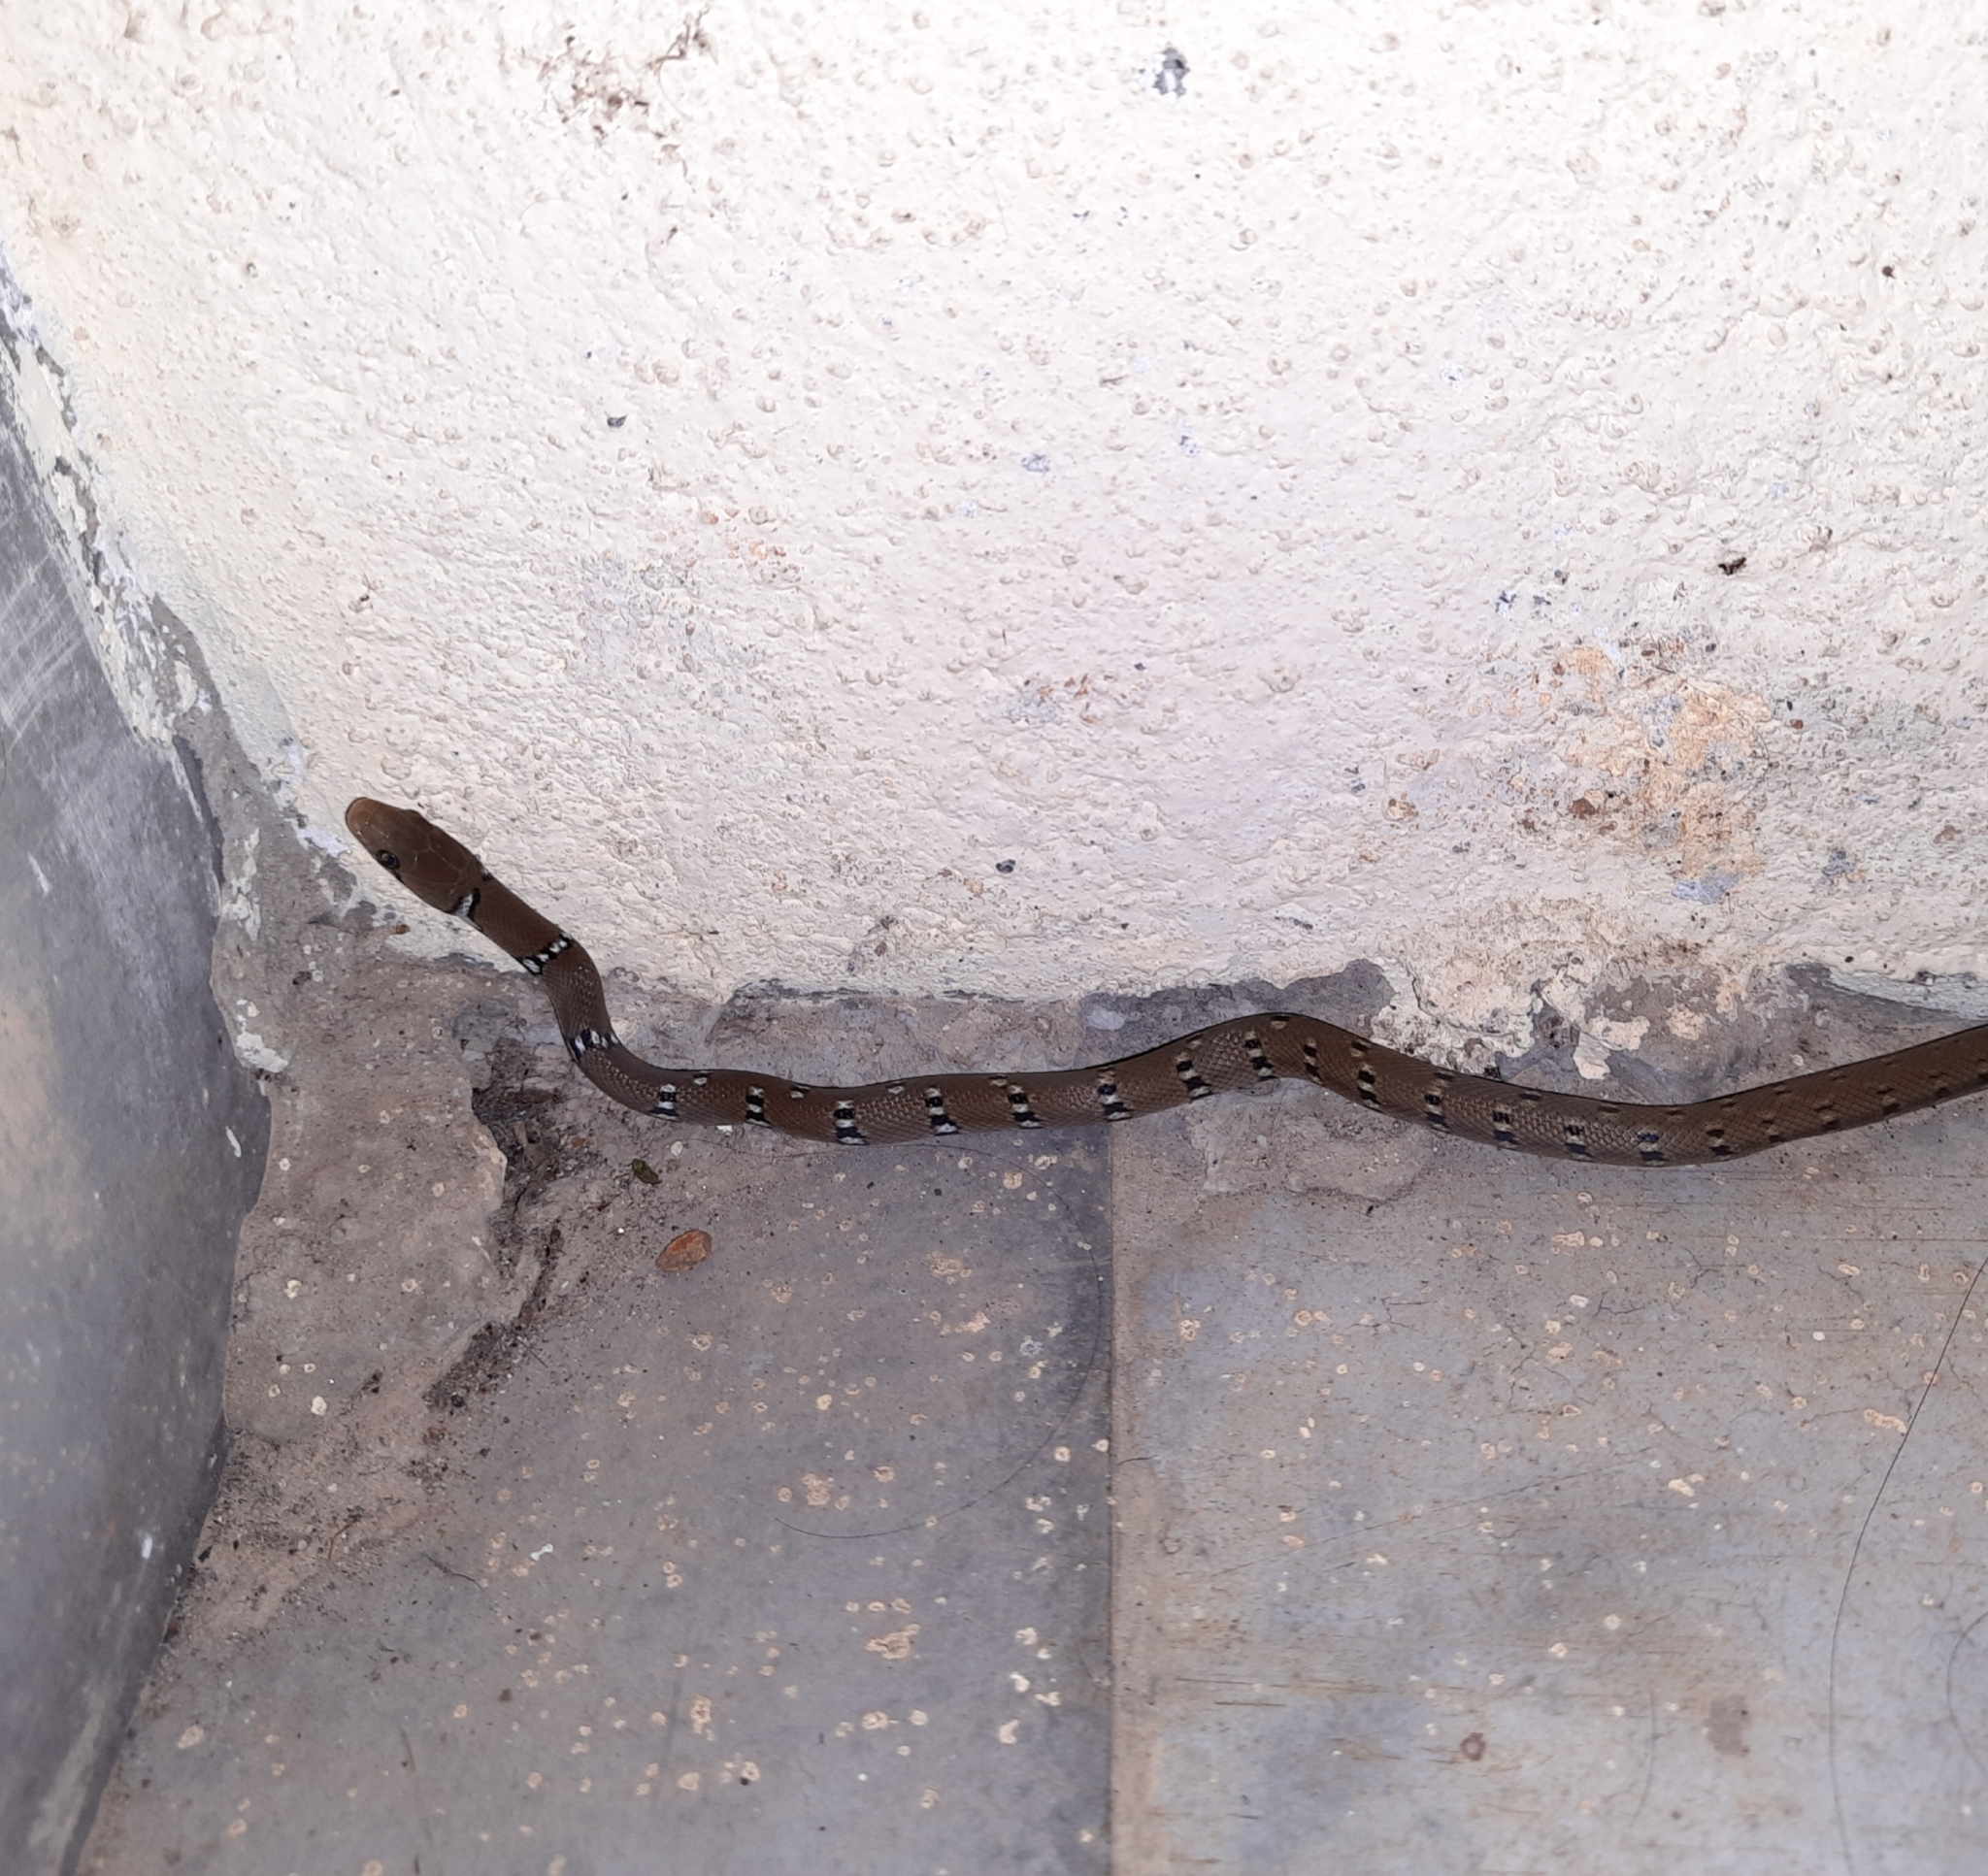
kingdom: Animalia
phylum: Chordata
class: Squamata
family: Colubridae
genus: Coelognathus
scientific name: Coelognathus helena
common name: Trinket snake
